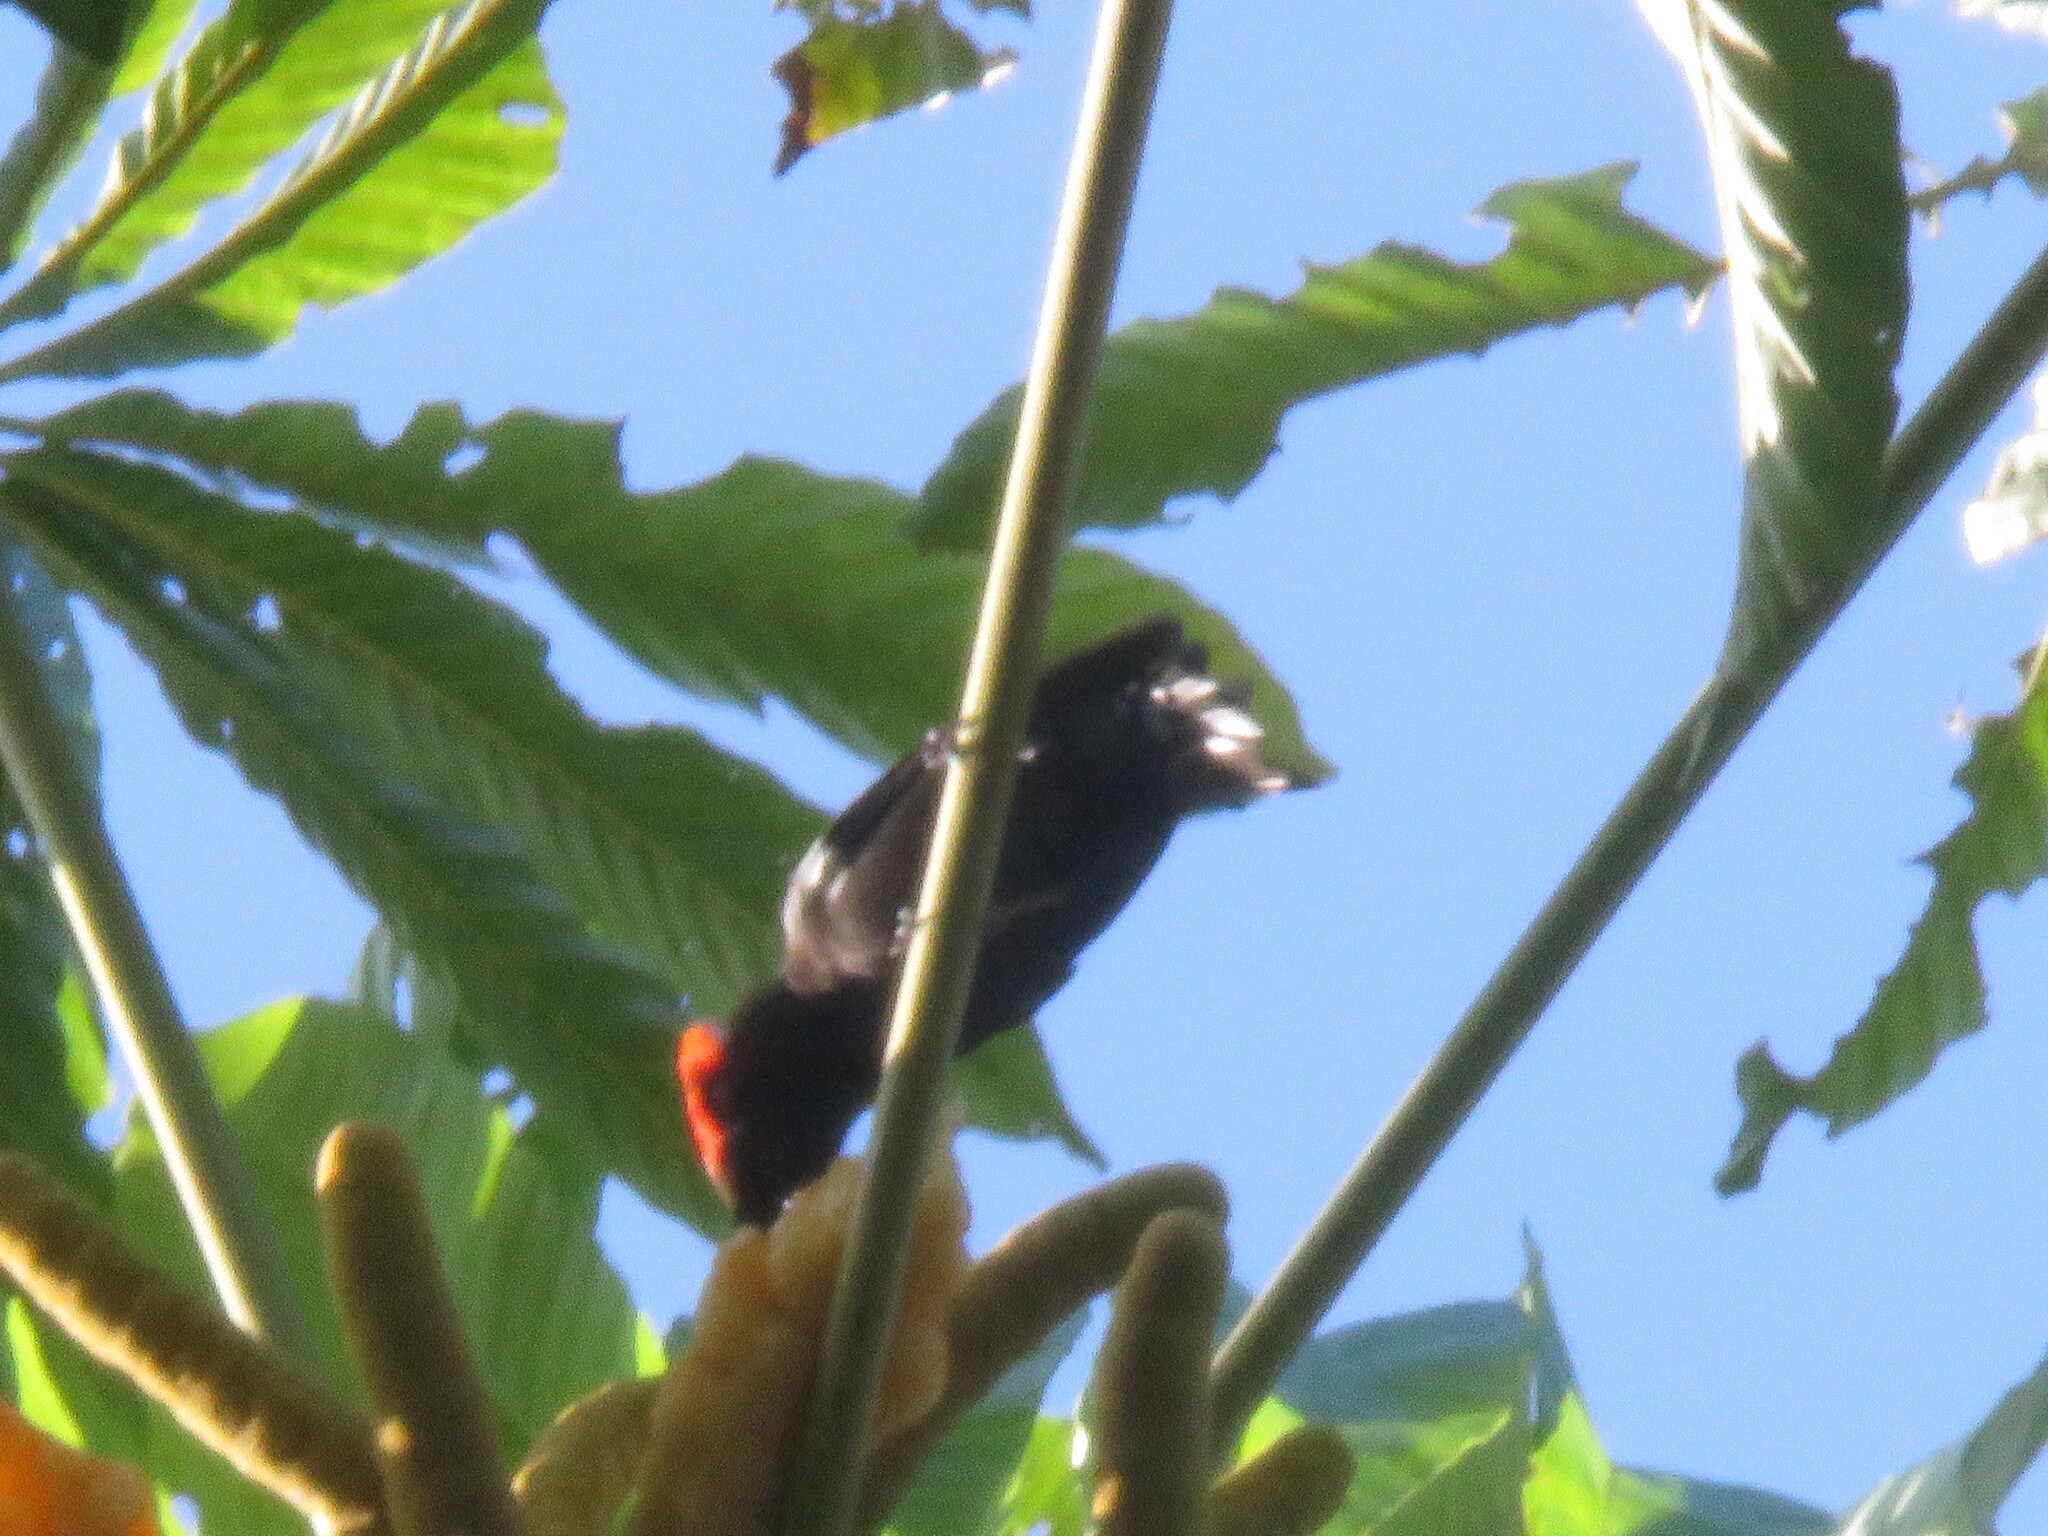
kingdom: Animalia
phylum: Chordata
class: Aves
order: Passeriformes
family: Thraupidae
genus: Loriotus
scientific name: Loriotus cristatus
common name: Flame-crested tanager
